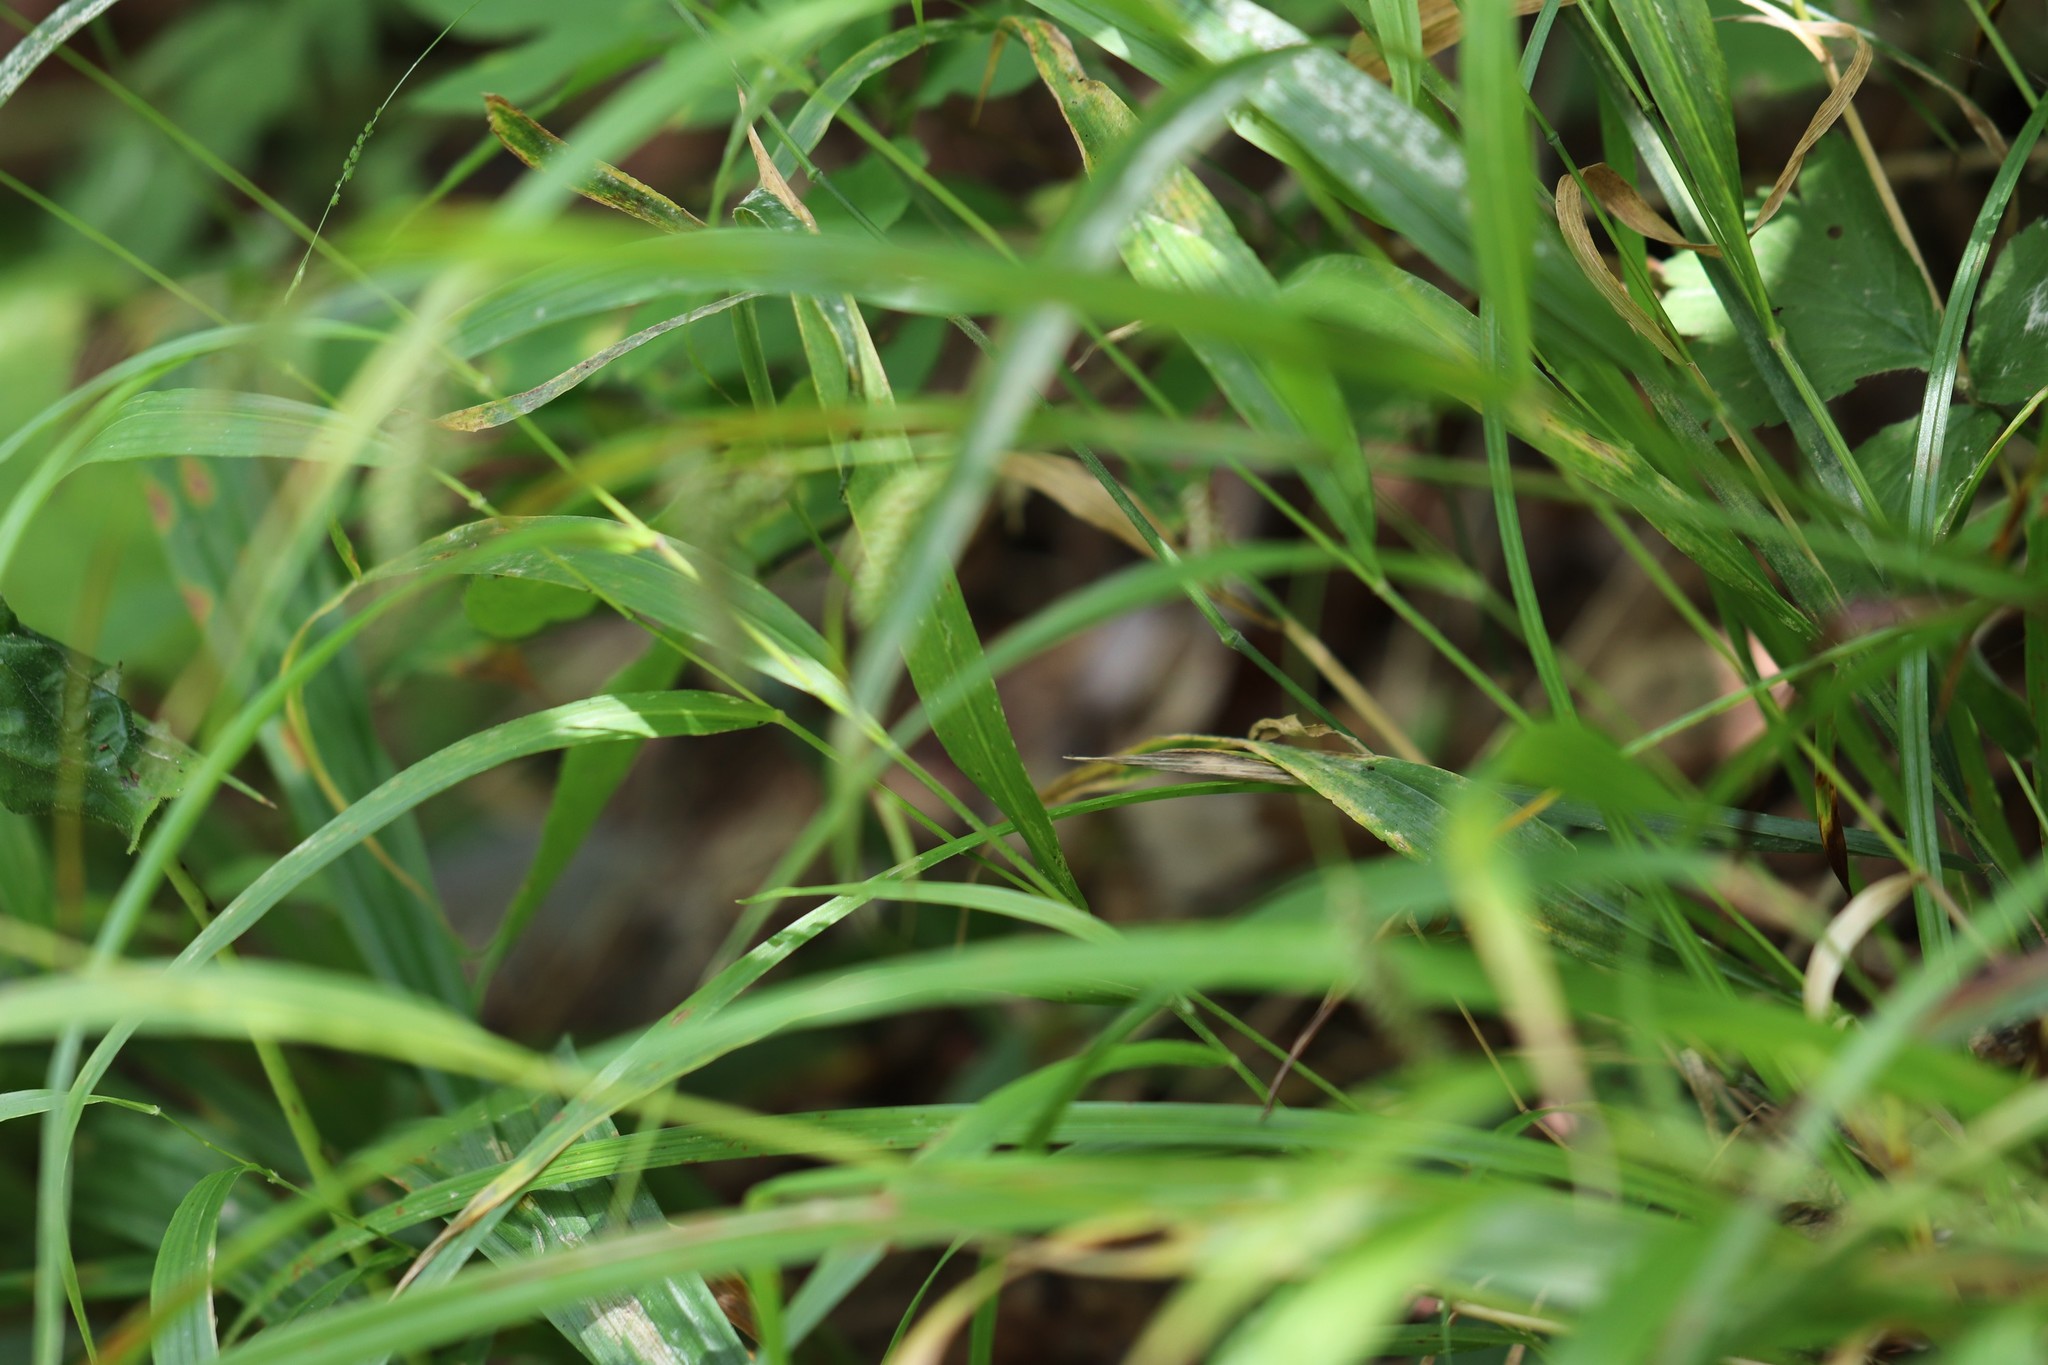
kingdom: Plantae
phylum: Tracheophyta
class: Liliopsida
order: Poales
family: Poaceae
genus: Diarrhena
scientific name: Diarrhena mandshurica
